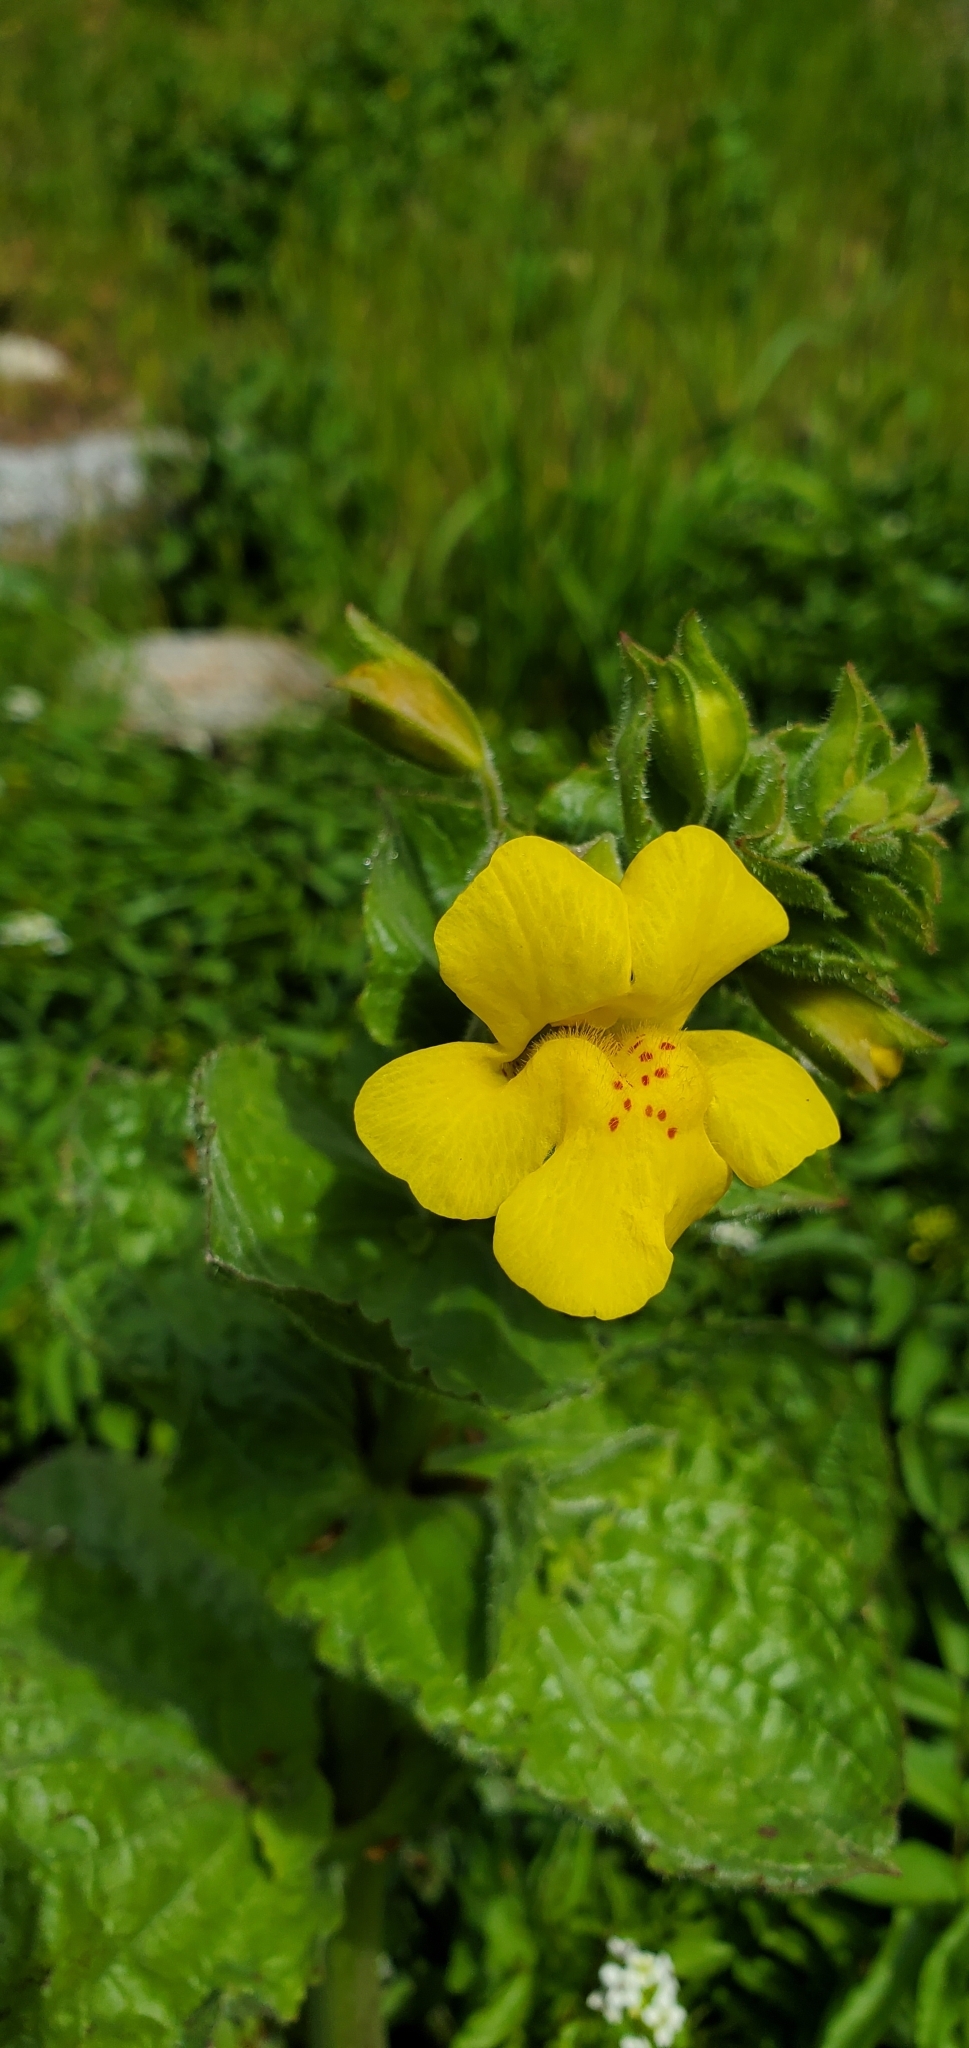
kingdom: Plantae
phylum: Tracheophyta
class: Magnoliopsida
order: Lamiales
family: Phrymaceae
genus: Erythranthe
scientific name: Erythranthe guttata
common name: Monkeyflower
